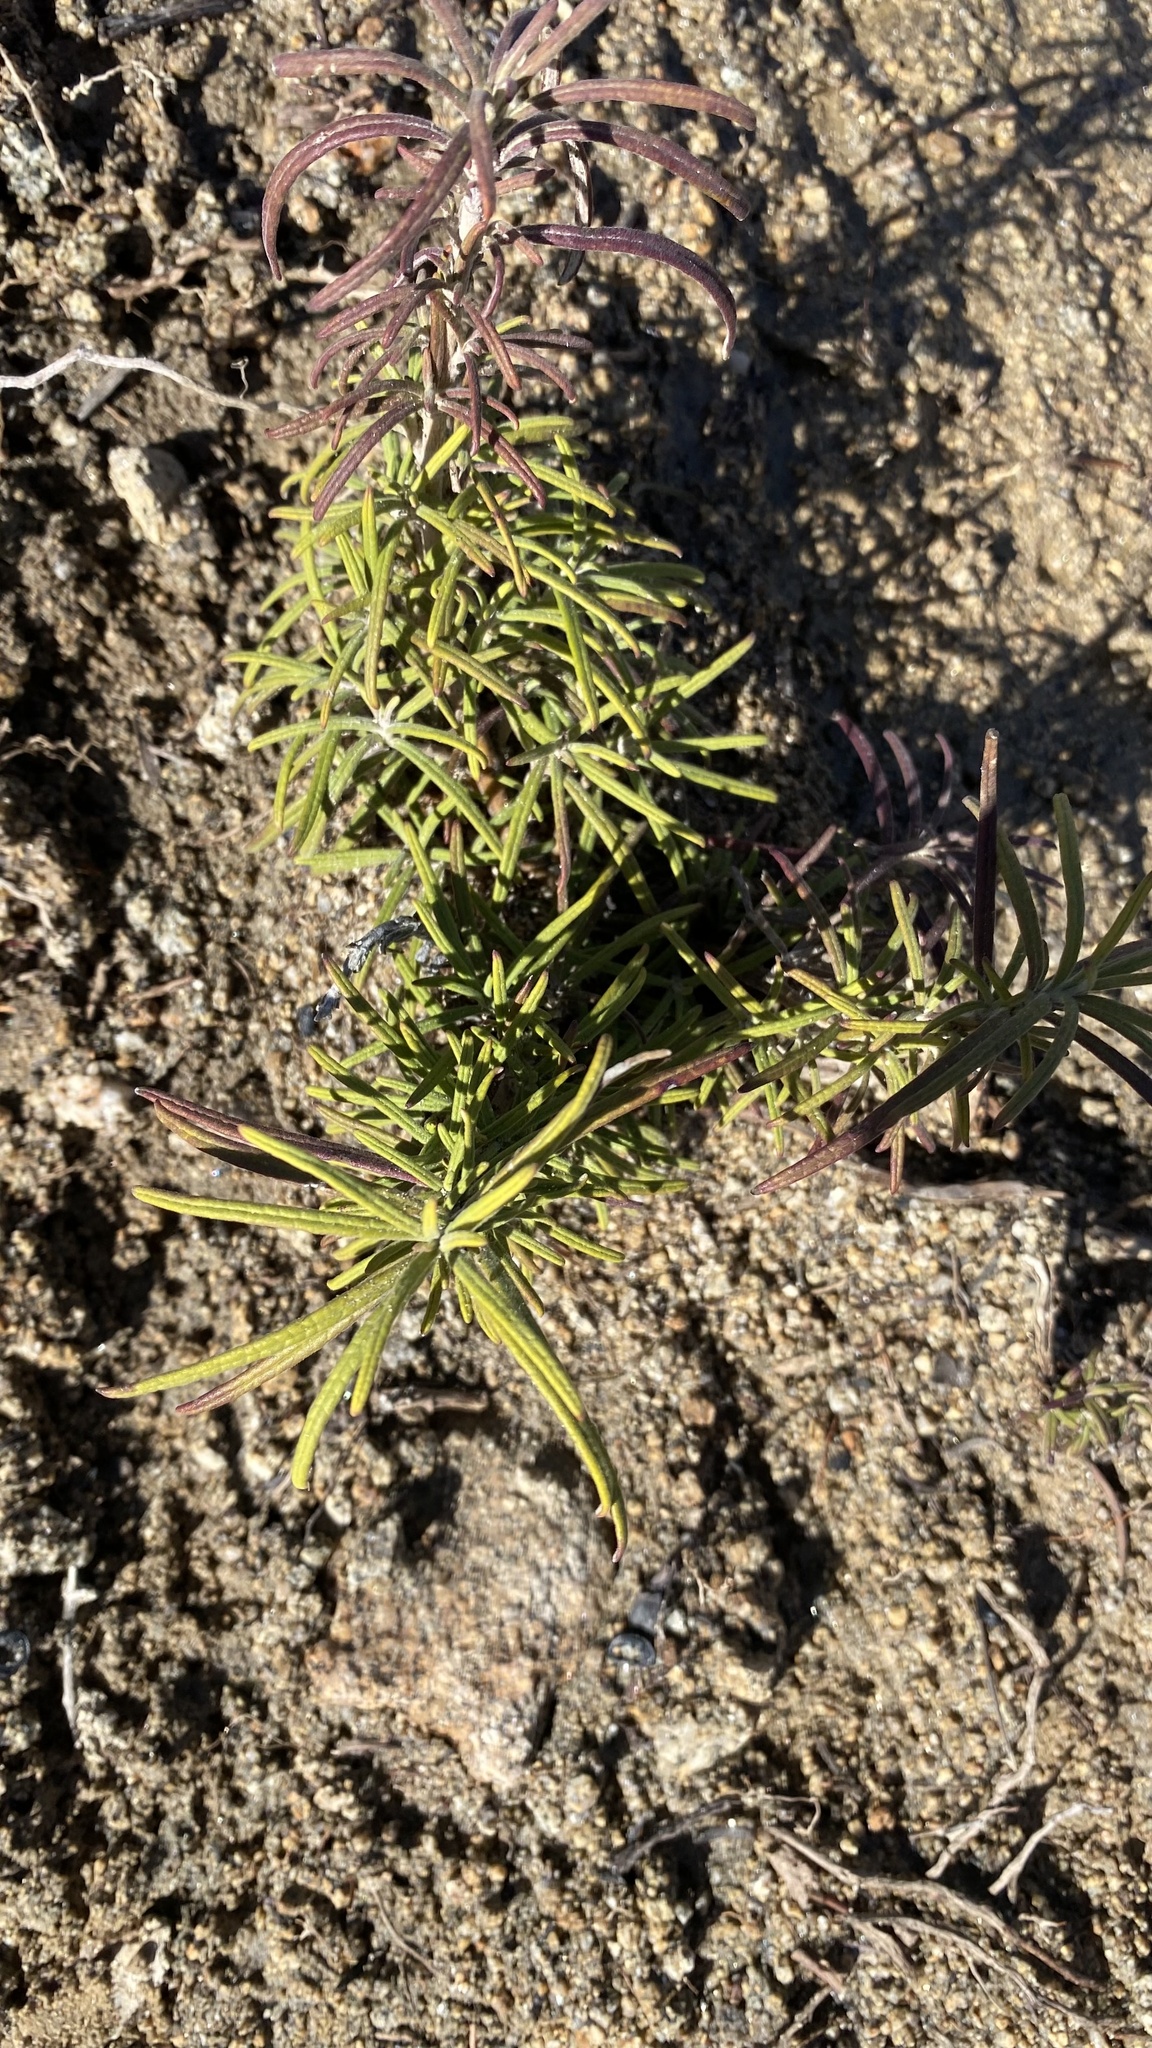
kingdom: Plantae
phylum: Tracheophyta
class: Magnoliopsida
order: Lamiales
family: Lamiaceae
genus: Trichostema
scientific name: Trichostema parishii
